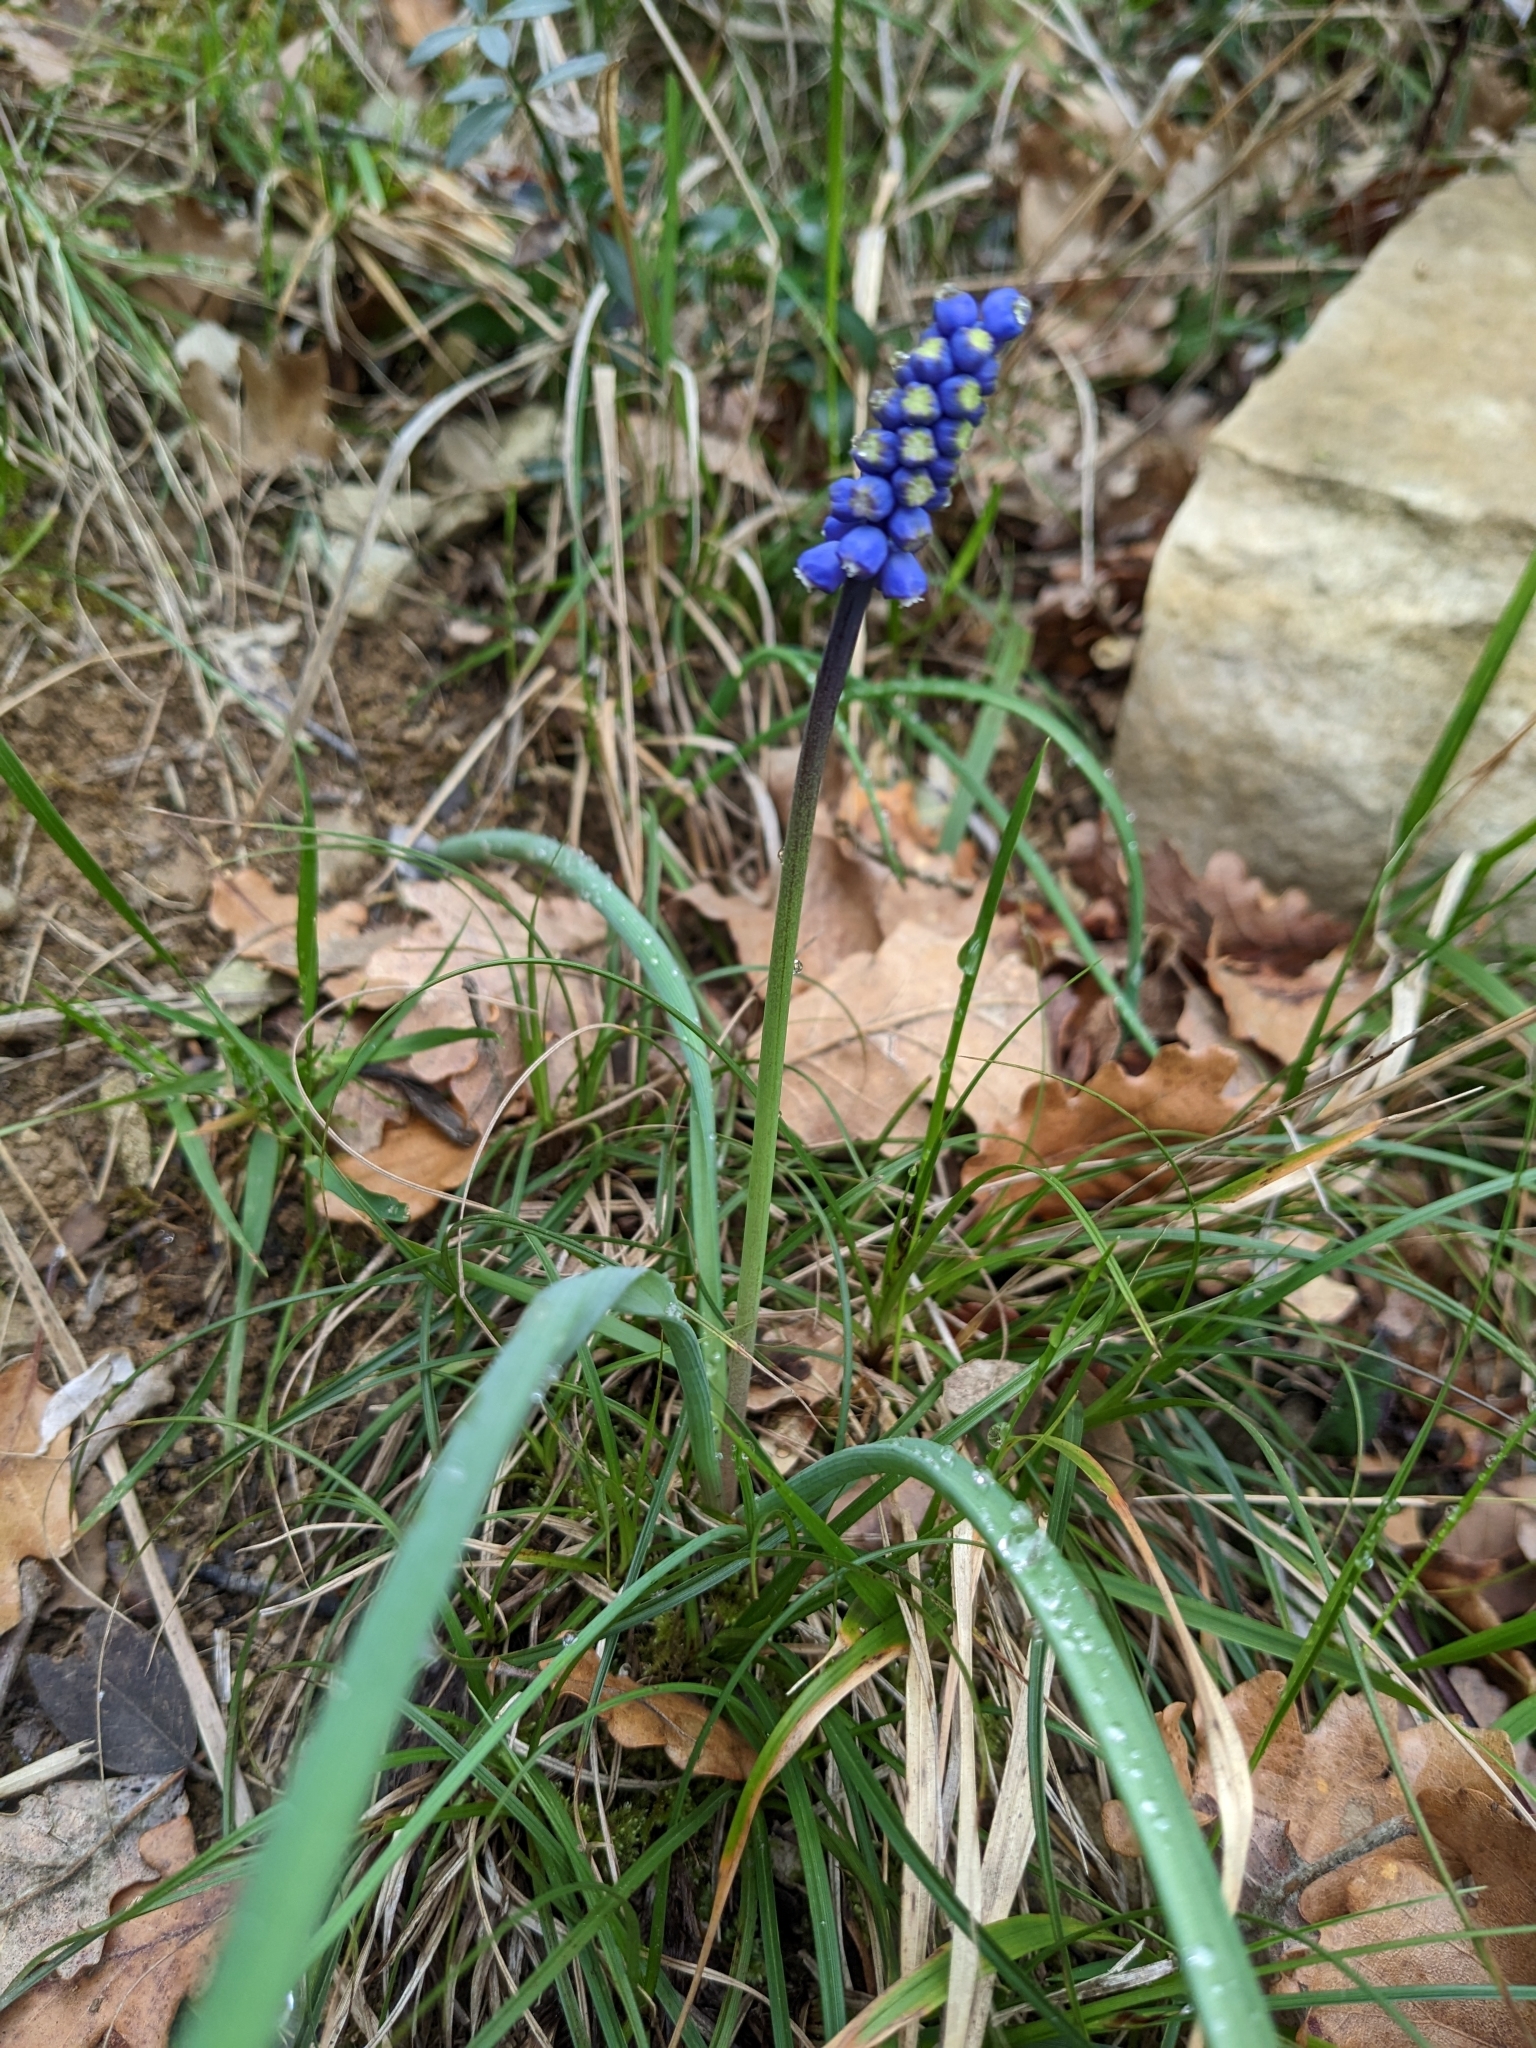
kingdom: Plantae
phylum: Tracheophyta
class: Liliopsida
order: Asparagales
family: Asparagaceae
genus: Muscari
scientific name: Muscari botryoides
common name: Compact grape-hyacinth
